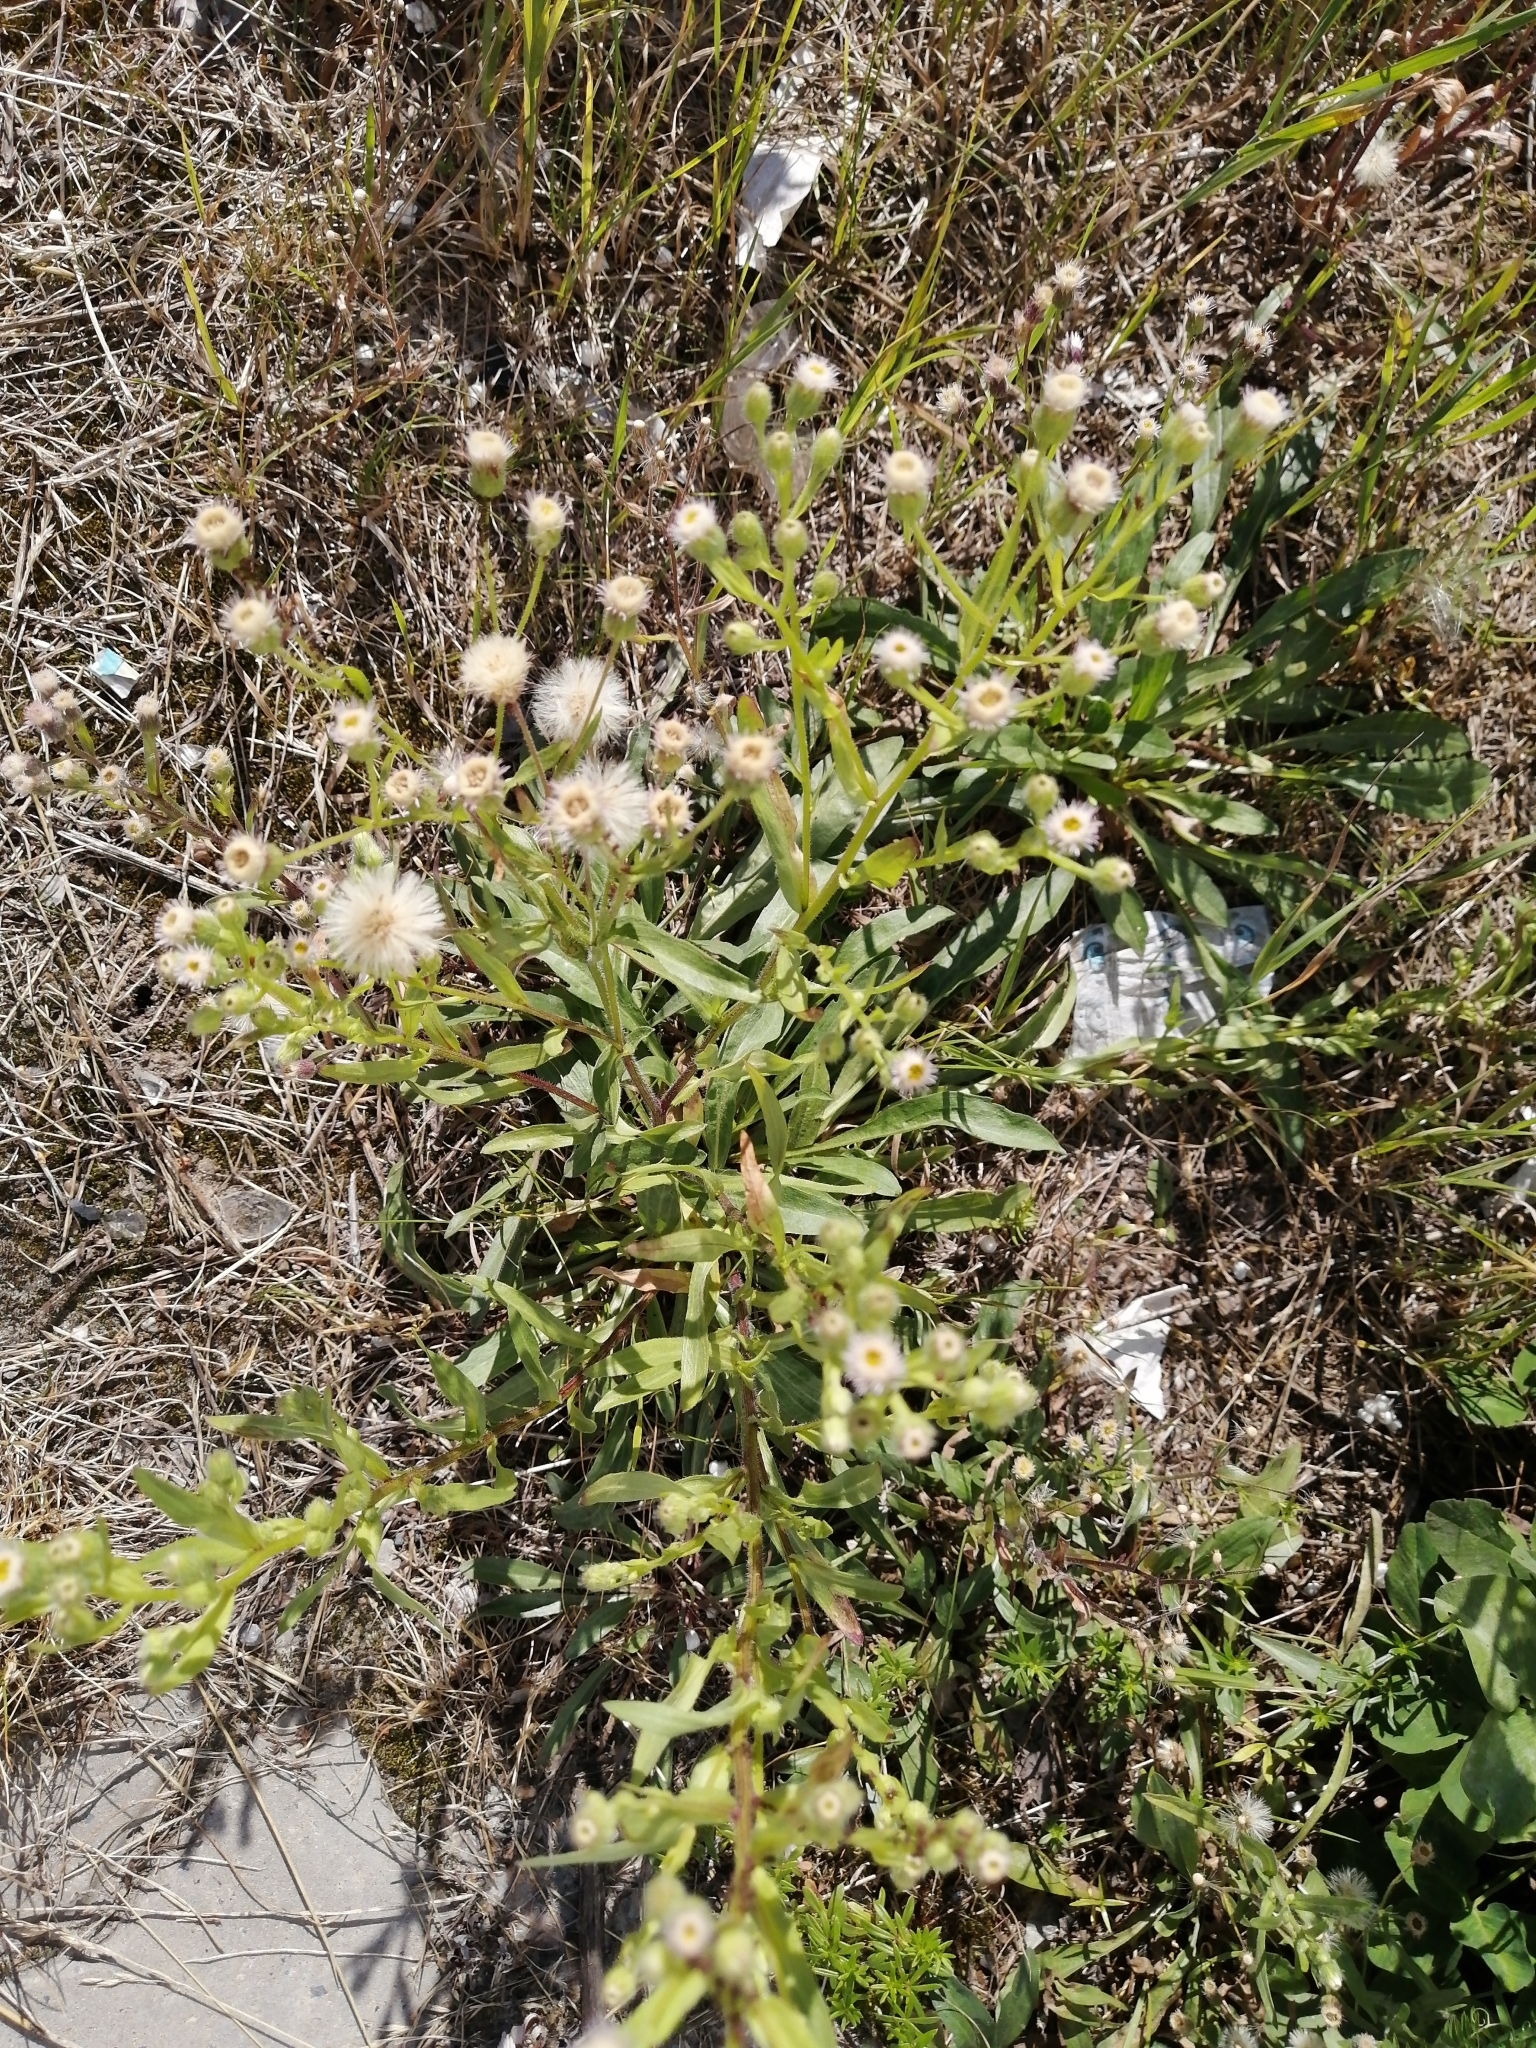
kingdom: Plantae
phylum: Tracheophyta
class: Magnoliopsida
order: Asterales
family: Asteraceae
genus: Erigeron
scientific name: Erigeron acris
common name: Blue fleabane
